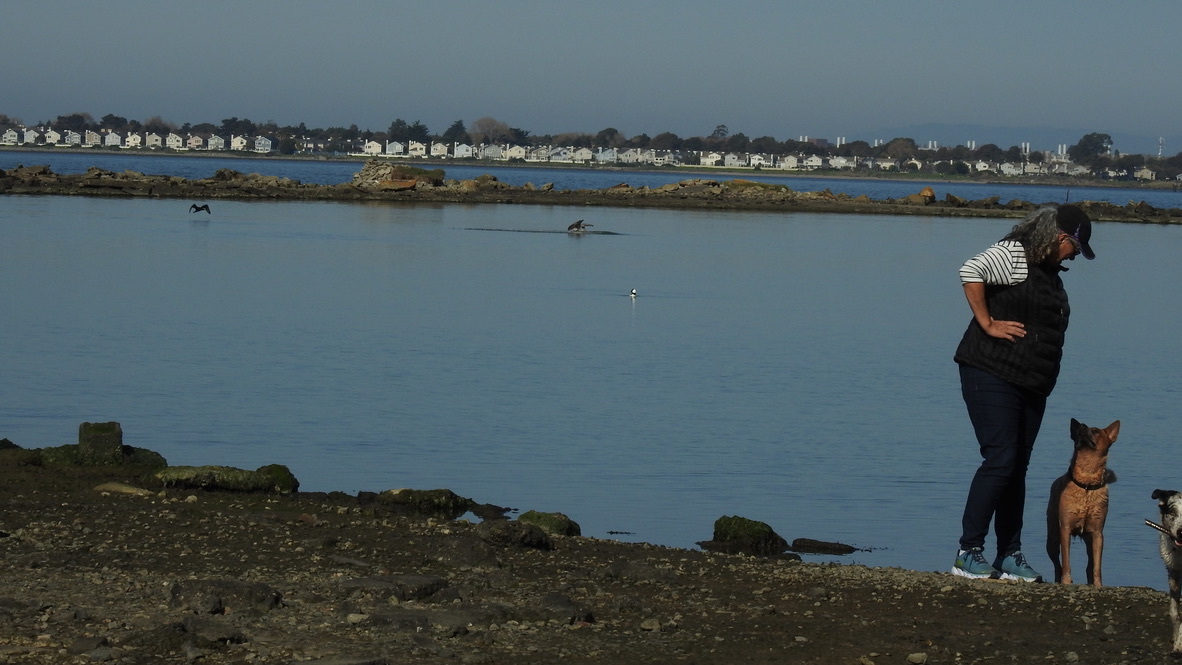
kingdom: Animalia
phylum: Chordata
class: Aves
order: Pelecaniformes
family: Pelecanidae
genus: Pelecanus
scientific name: Pelecanus occidentalis
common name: Brown pelican
